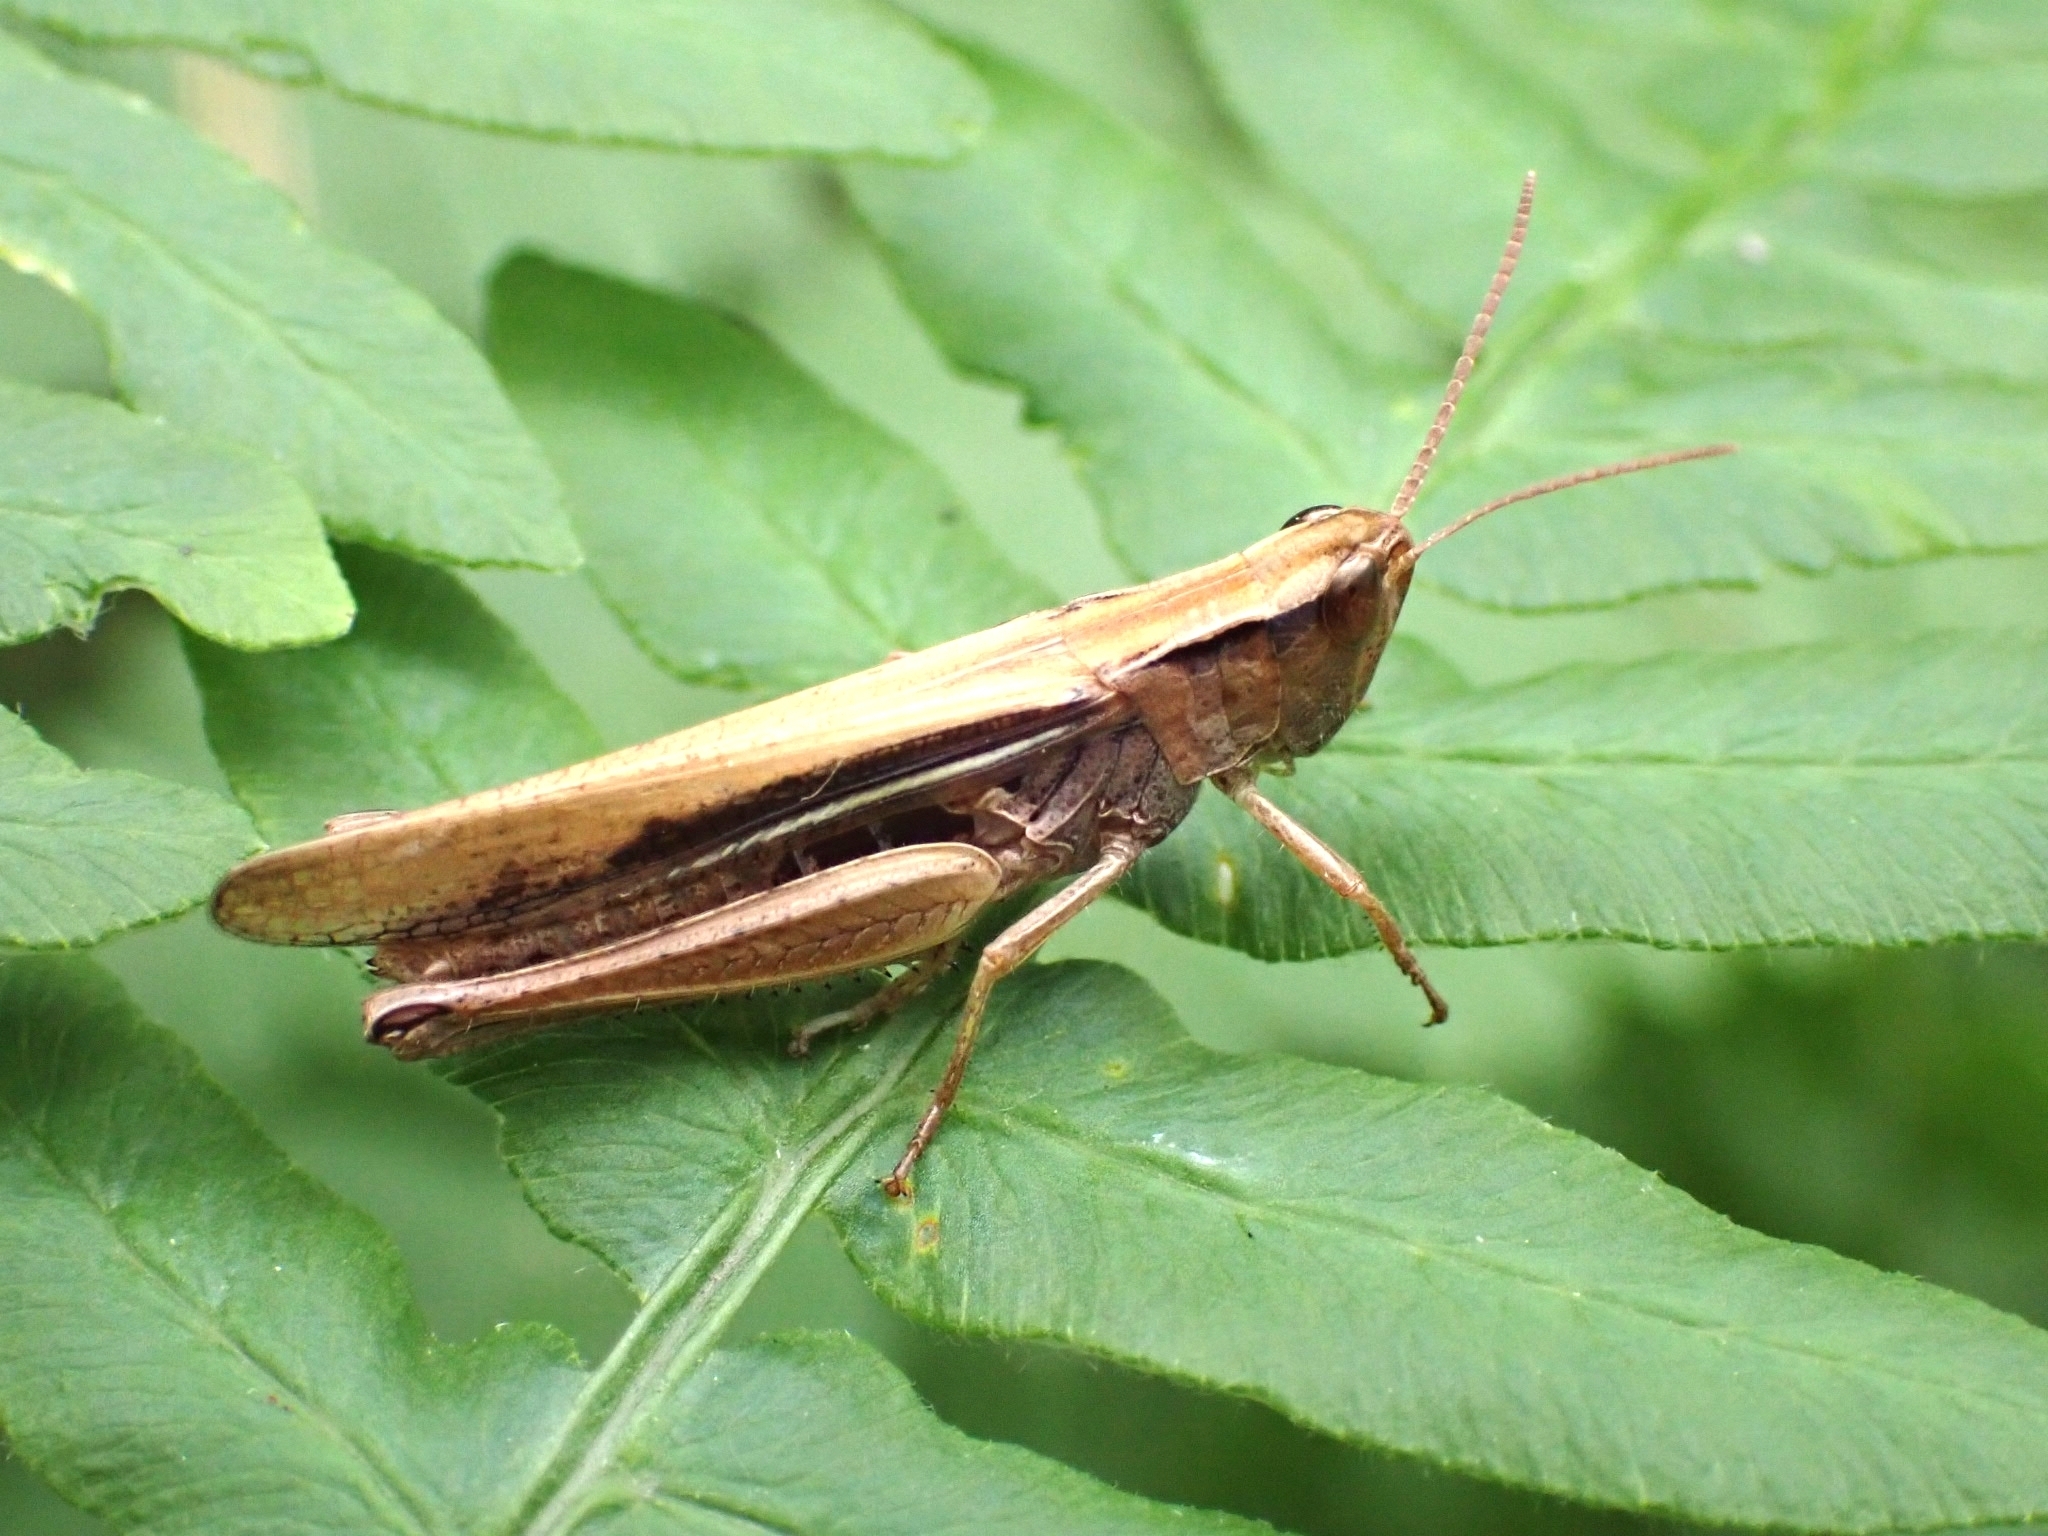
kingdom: Animalia
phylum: Arthropoda
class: Insecta
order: Orthoptera
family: Acrididae
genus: Chorthippus
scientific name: Chorthippus albomarginatus
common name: Lesser marsh grasshopper
